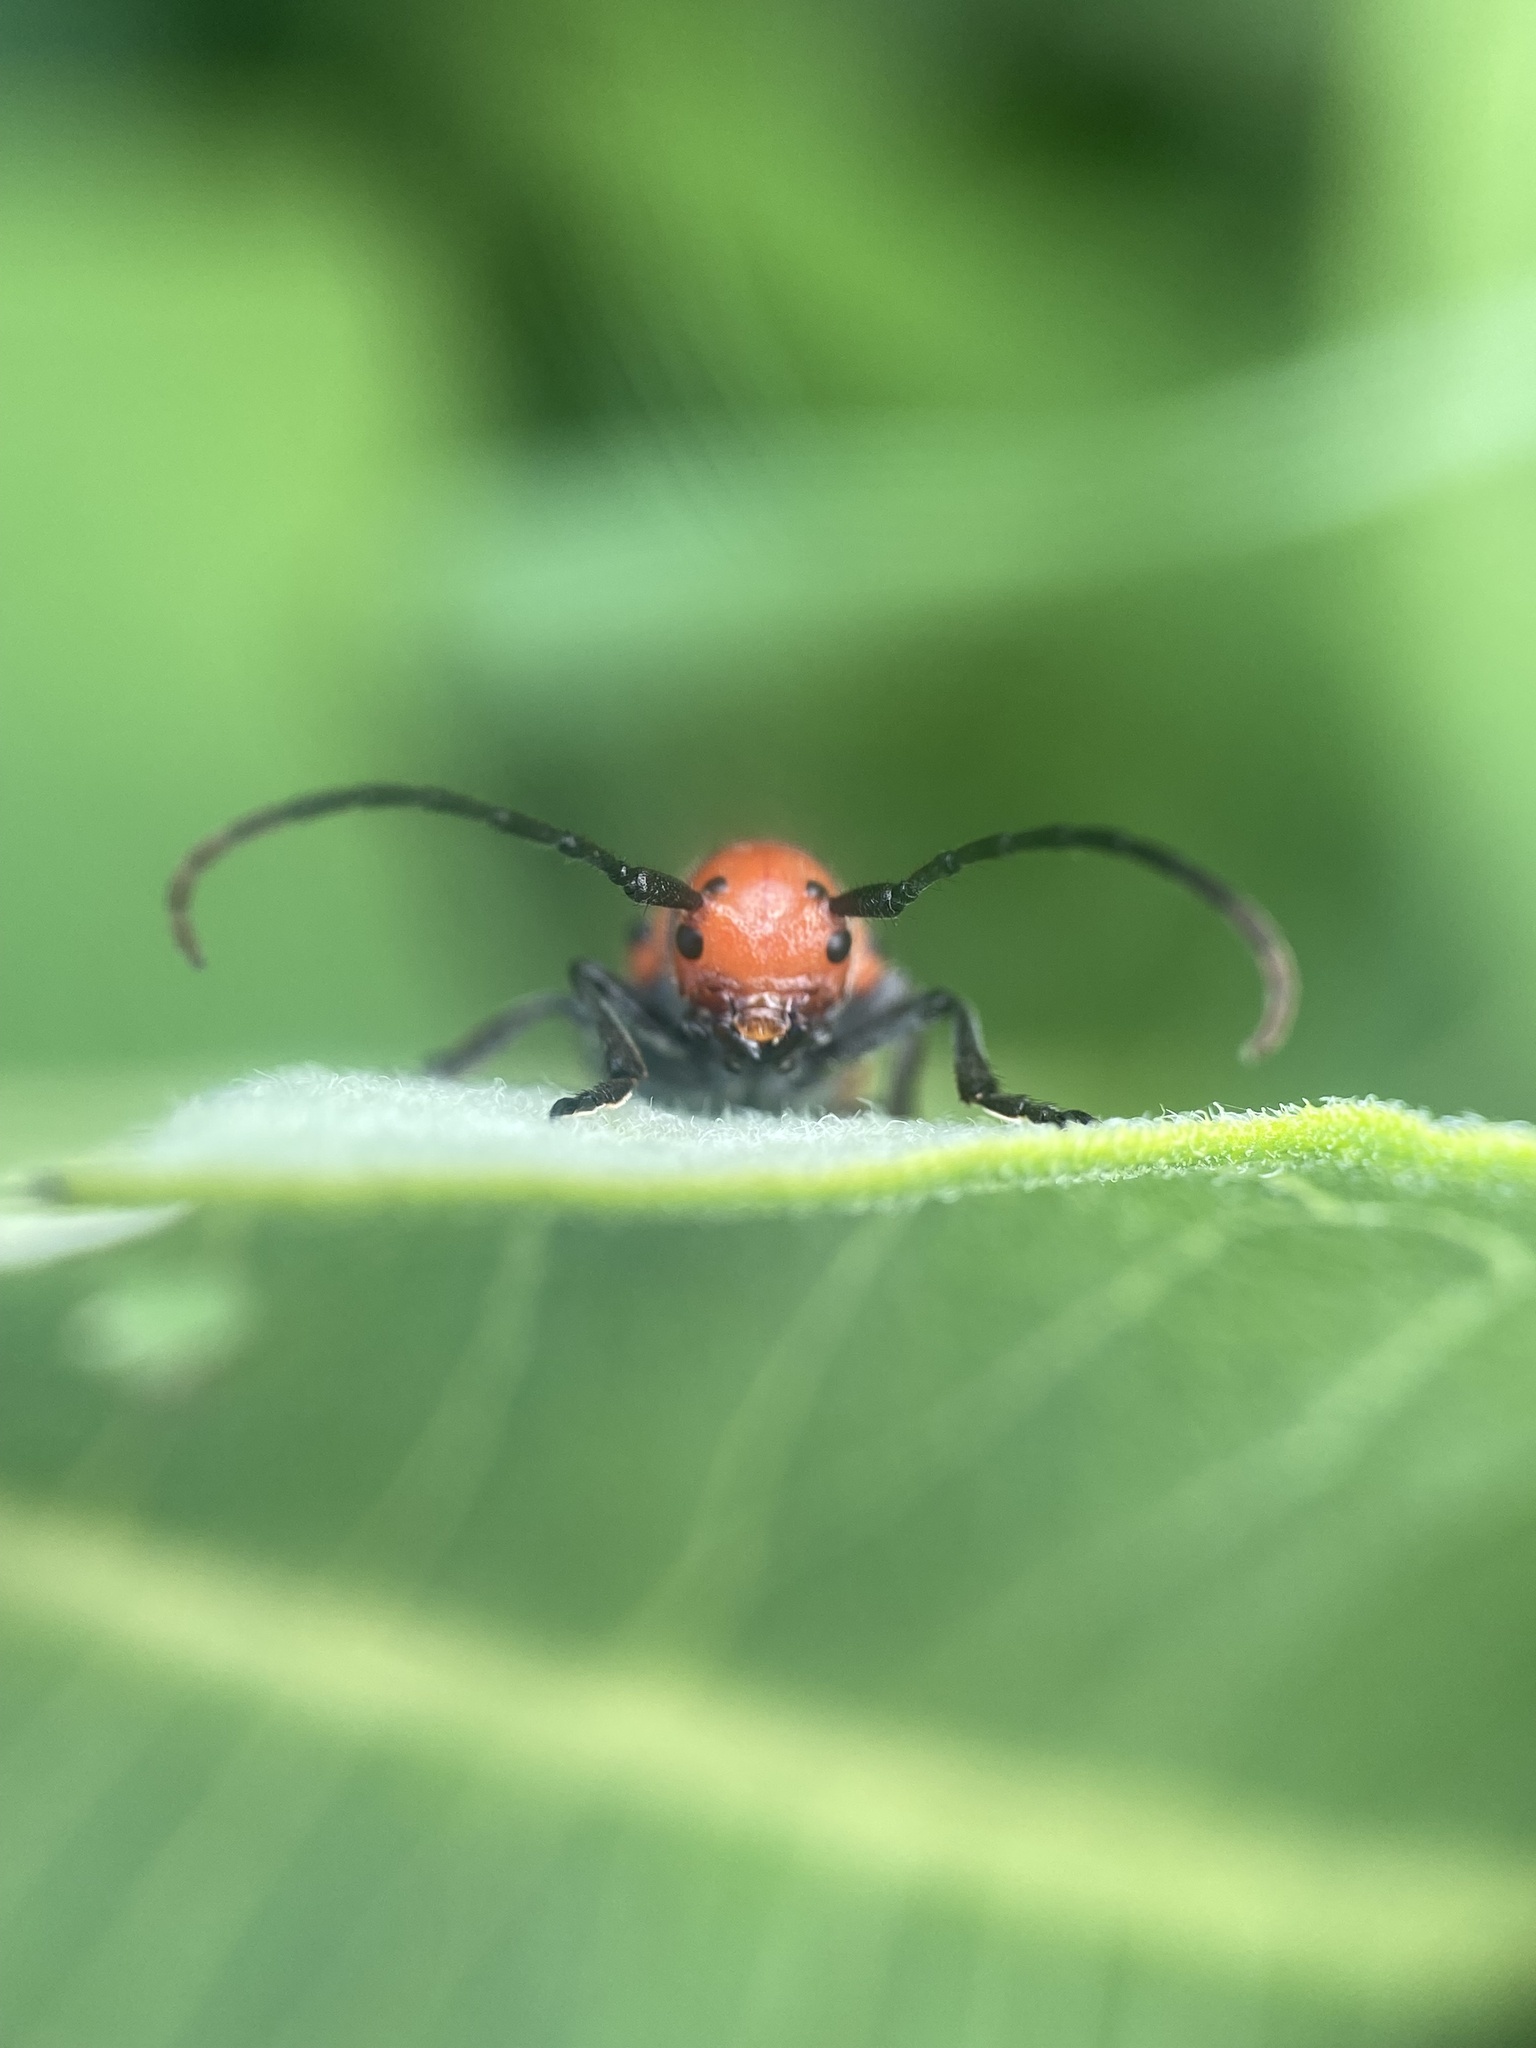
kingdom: Animalia
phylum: Arthropoda
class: Insecta
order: Coleoptera
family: Cerambycidae
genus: Tetraopes
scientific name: Tetraopes tetrophthalmus
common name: Red milkweed beetle
